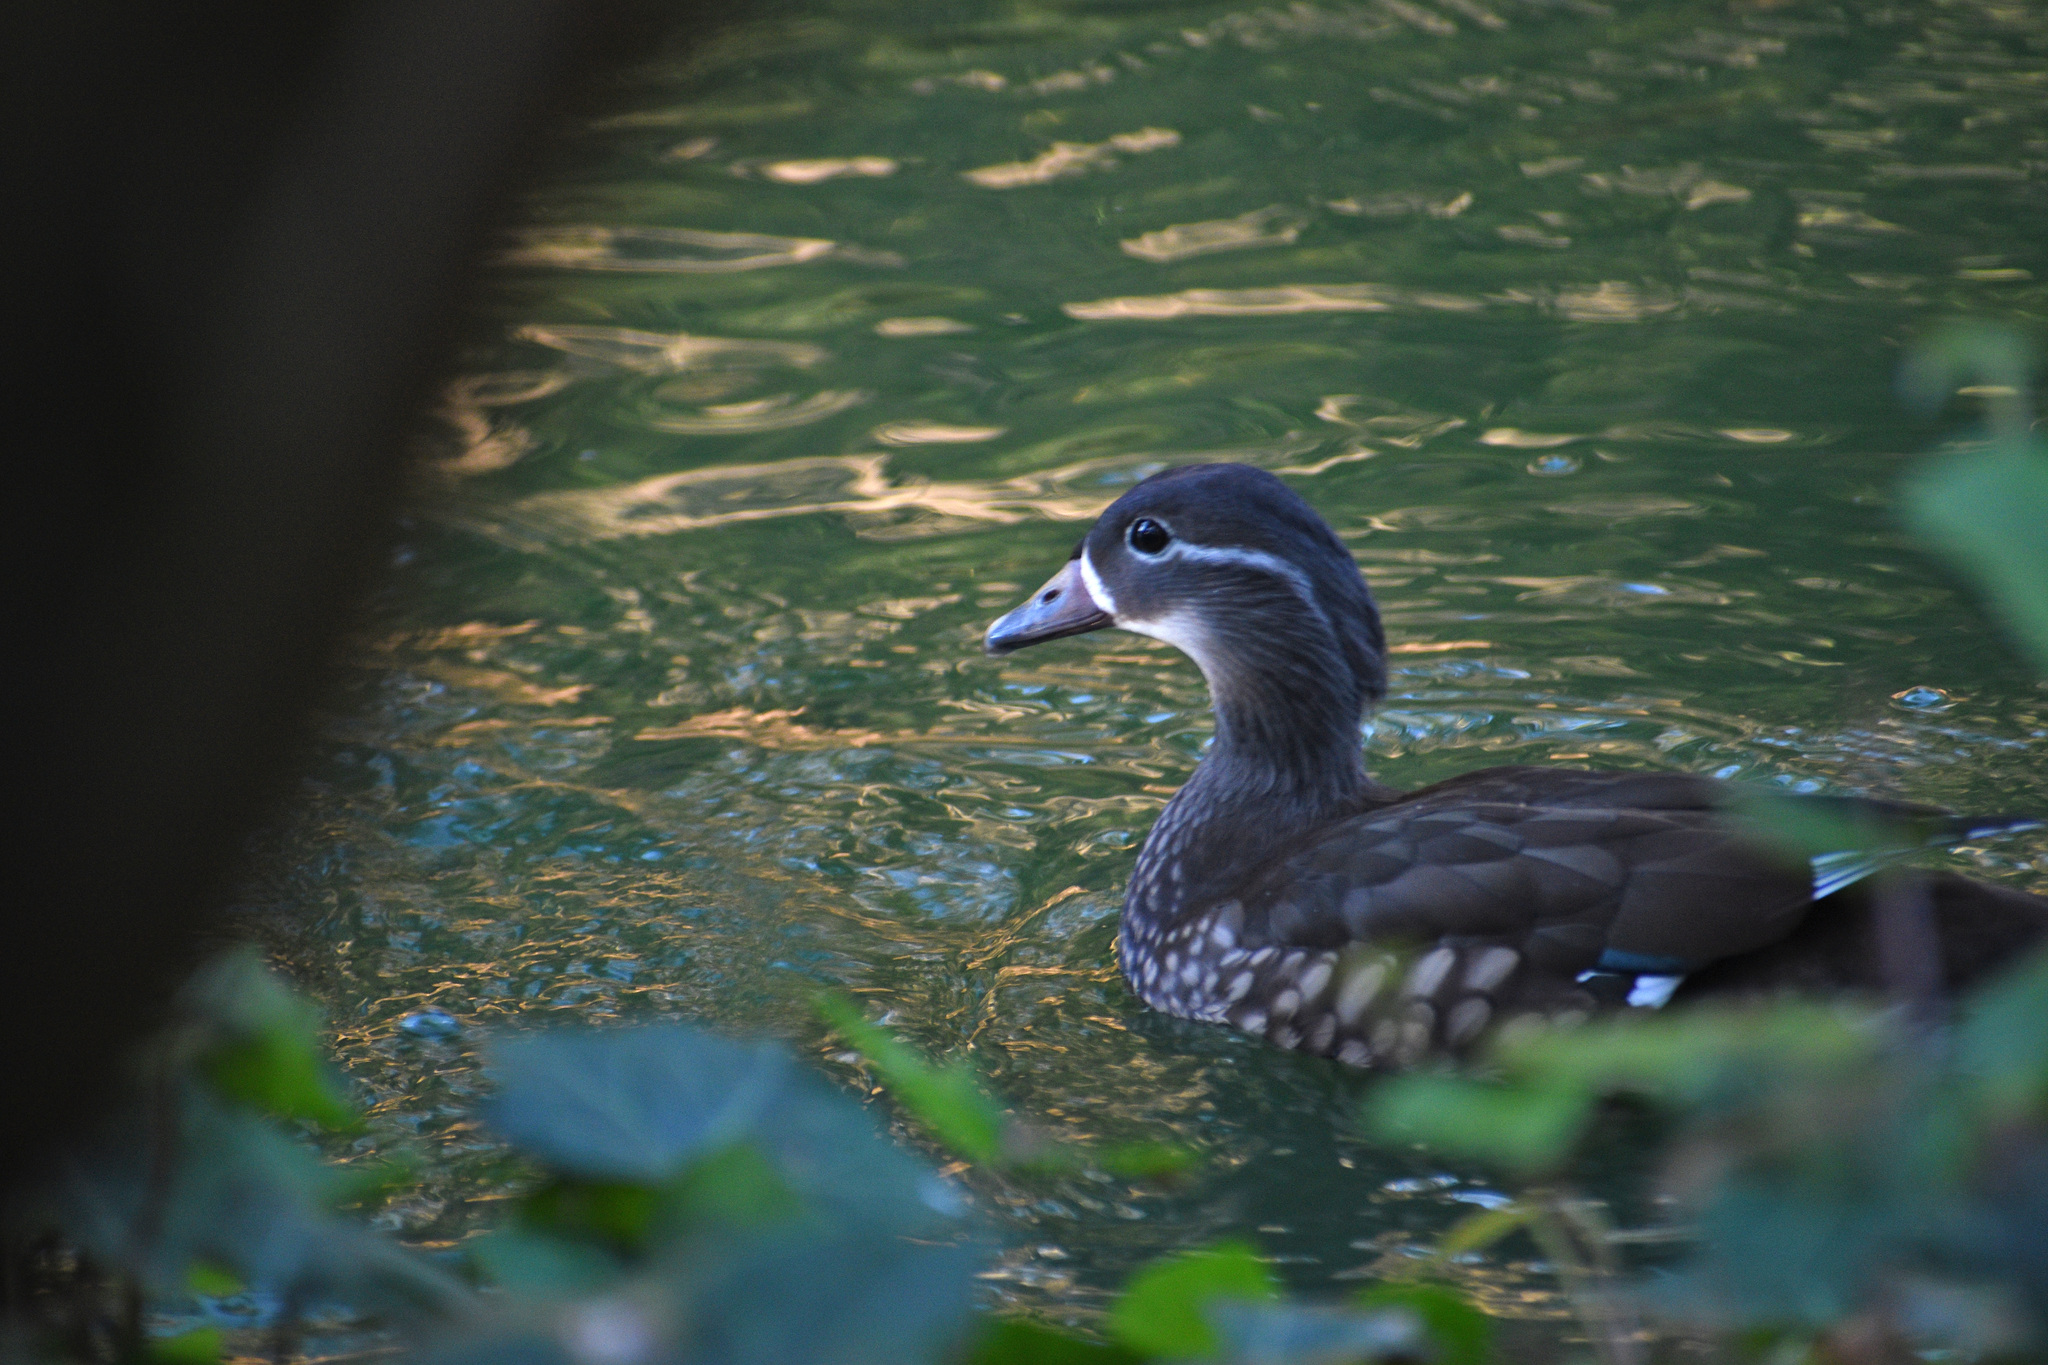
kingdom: Animalia
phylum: Chordata
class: Aves
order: Anseriformes
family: Anatidae
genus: Aix
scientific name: Aix galericulata
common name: Mandarin duck
